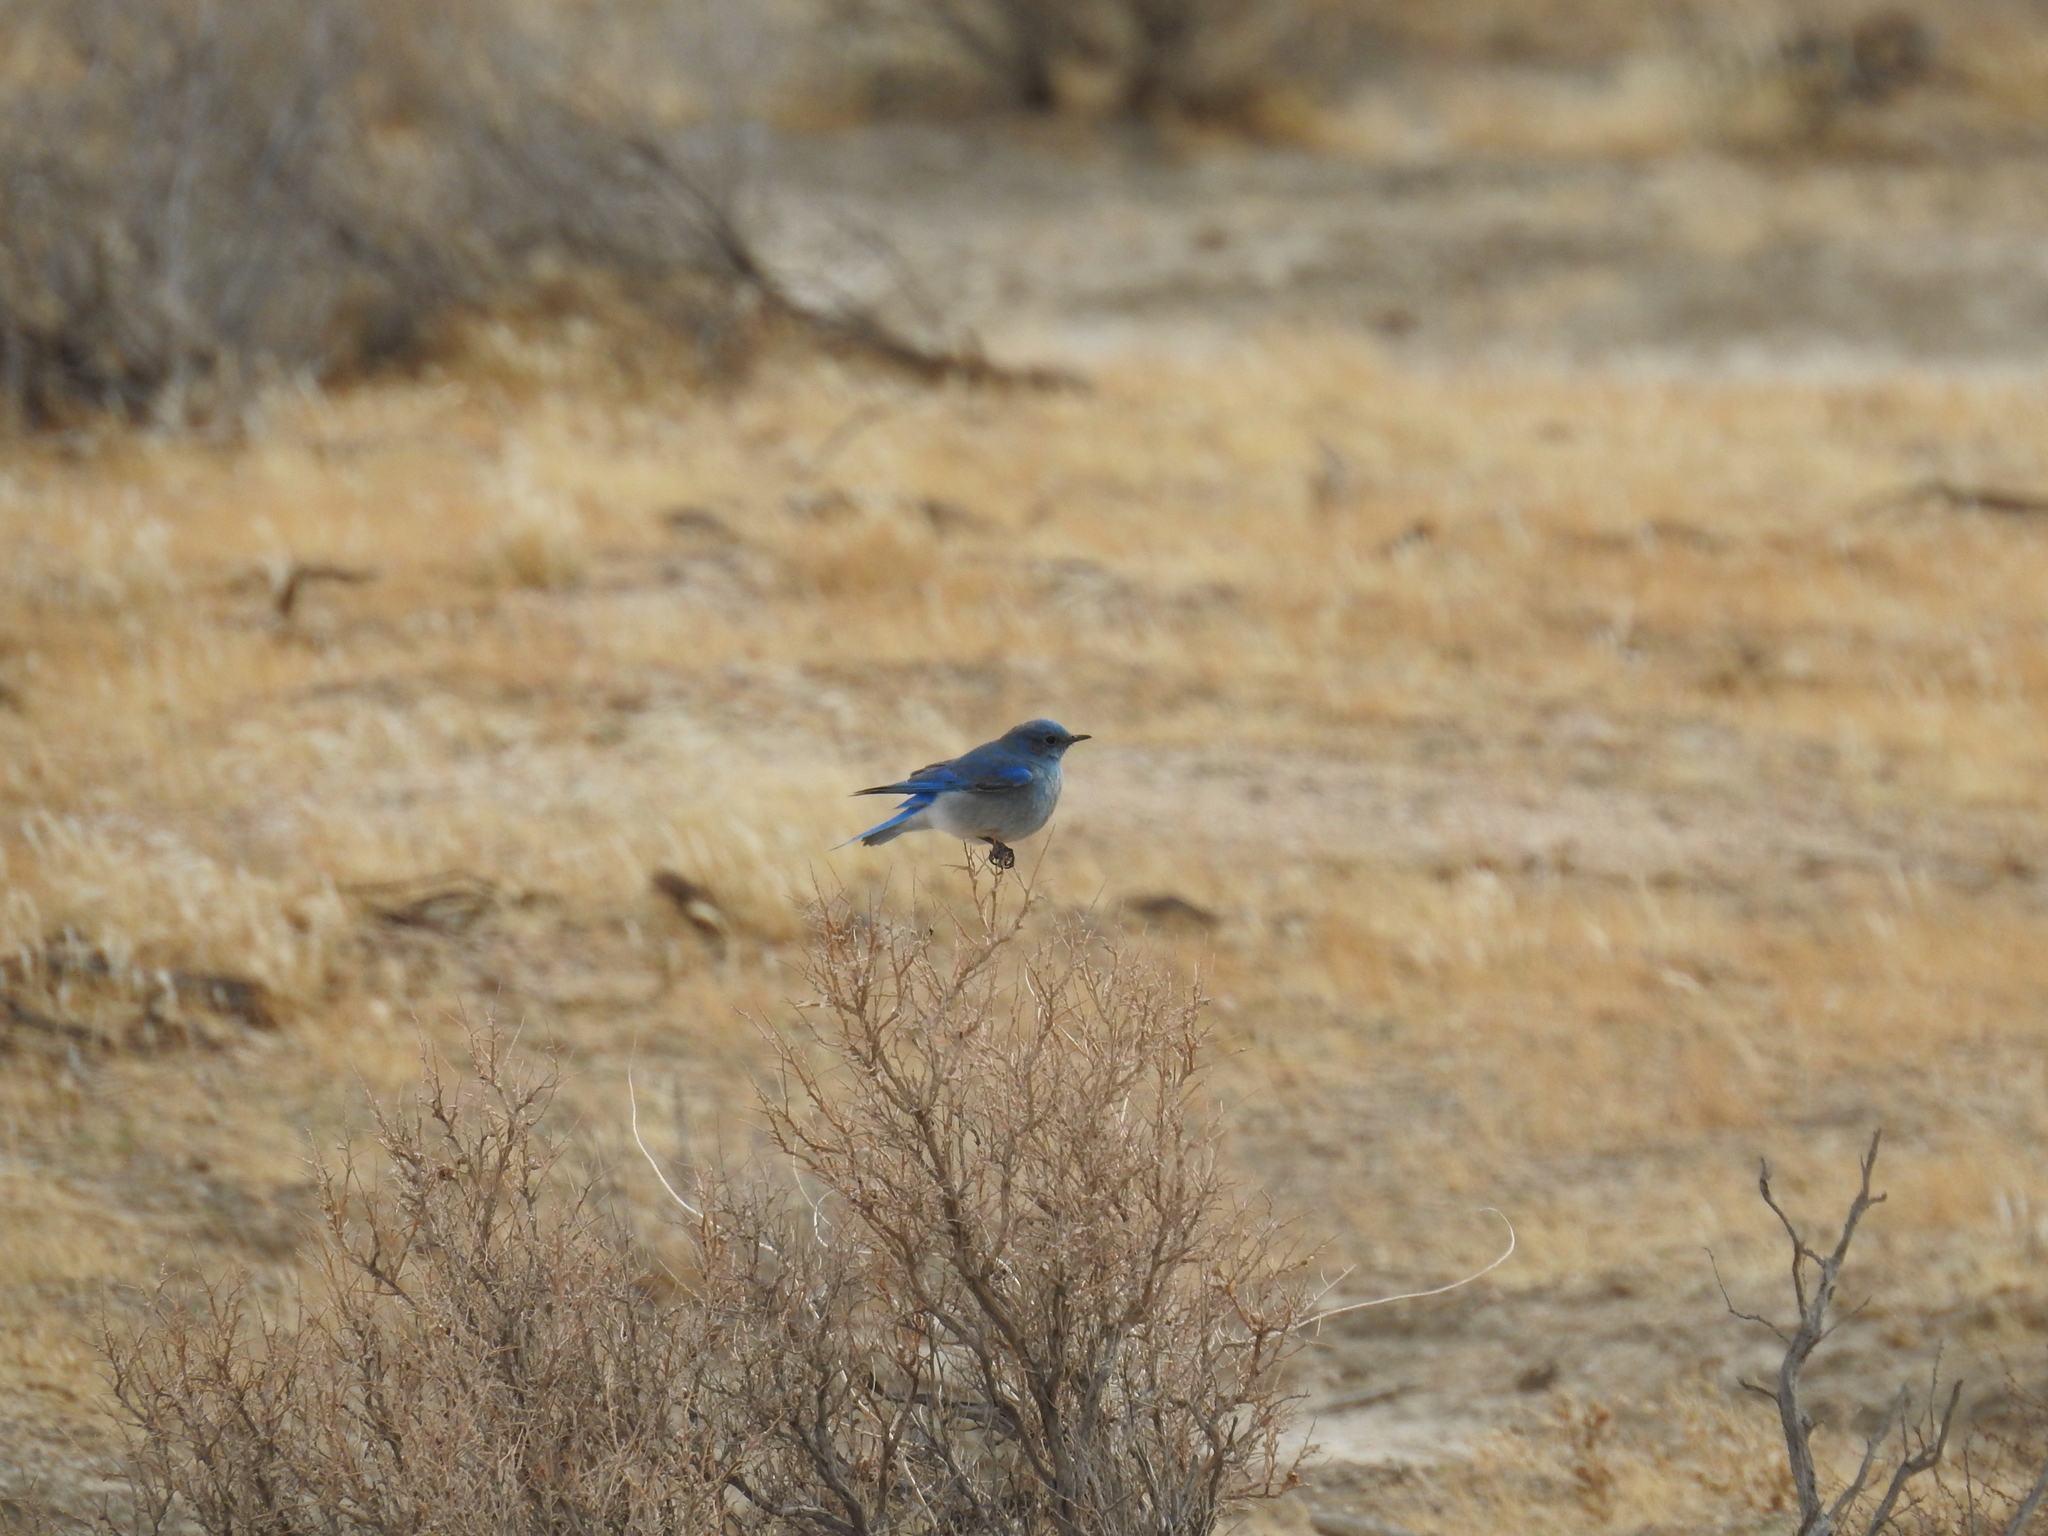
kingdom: Animalia
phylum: Chordata
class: Aves
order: Passeriformes
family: Turdidae
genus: Sialia
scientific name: Sialia currucoides
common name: Mountain bluebird
